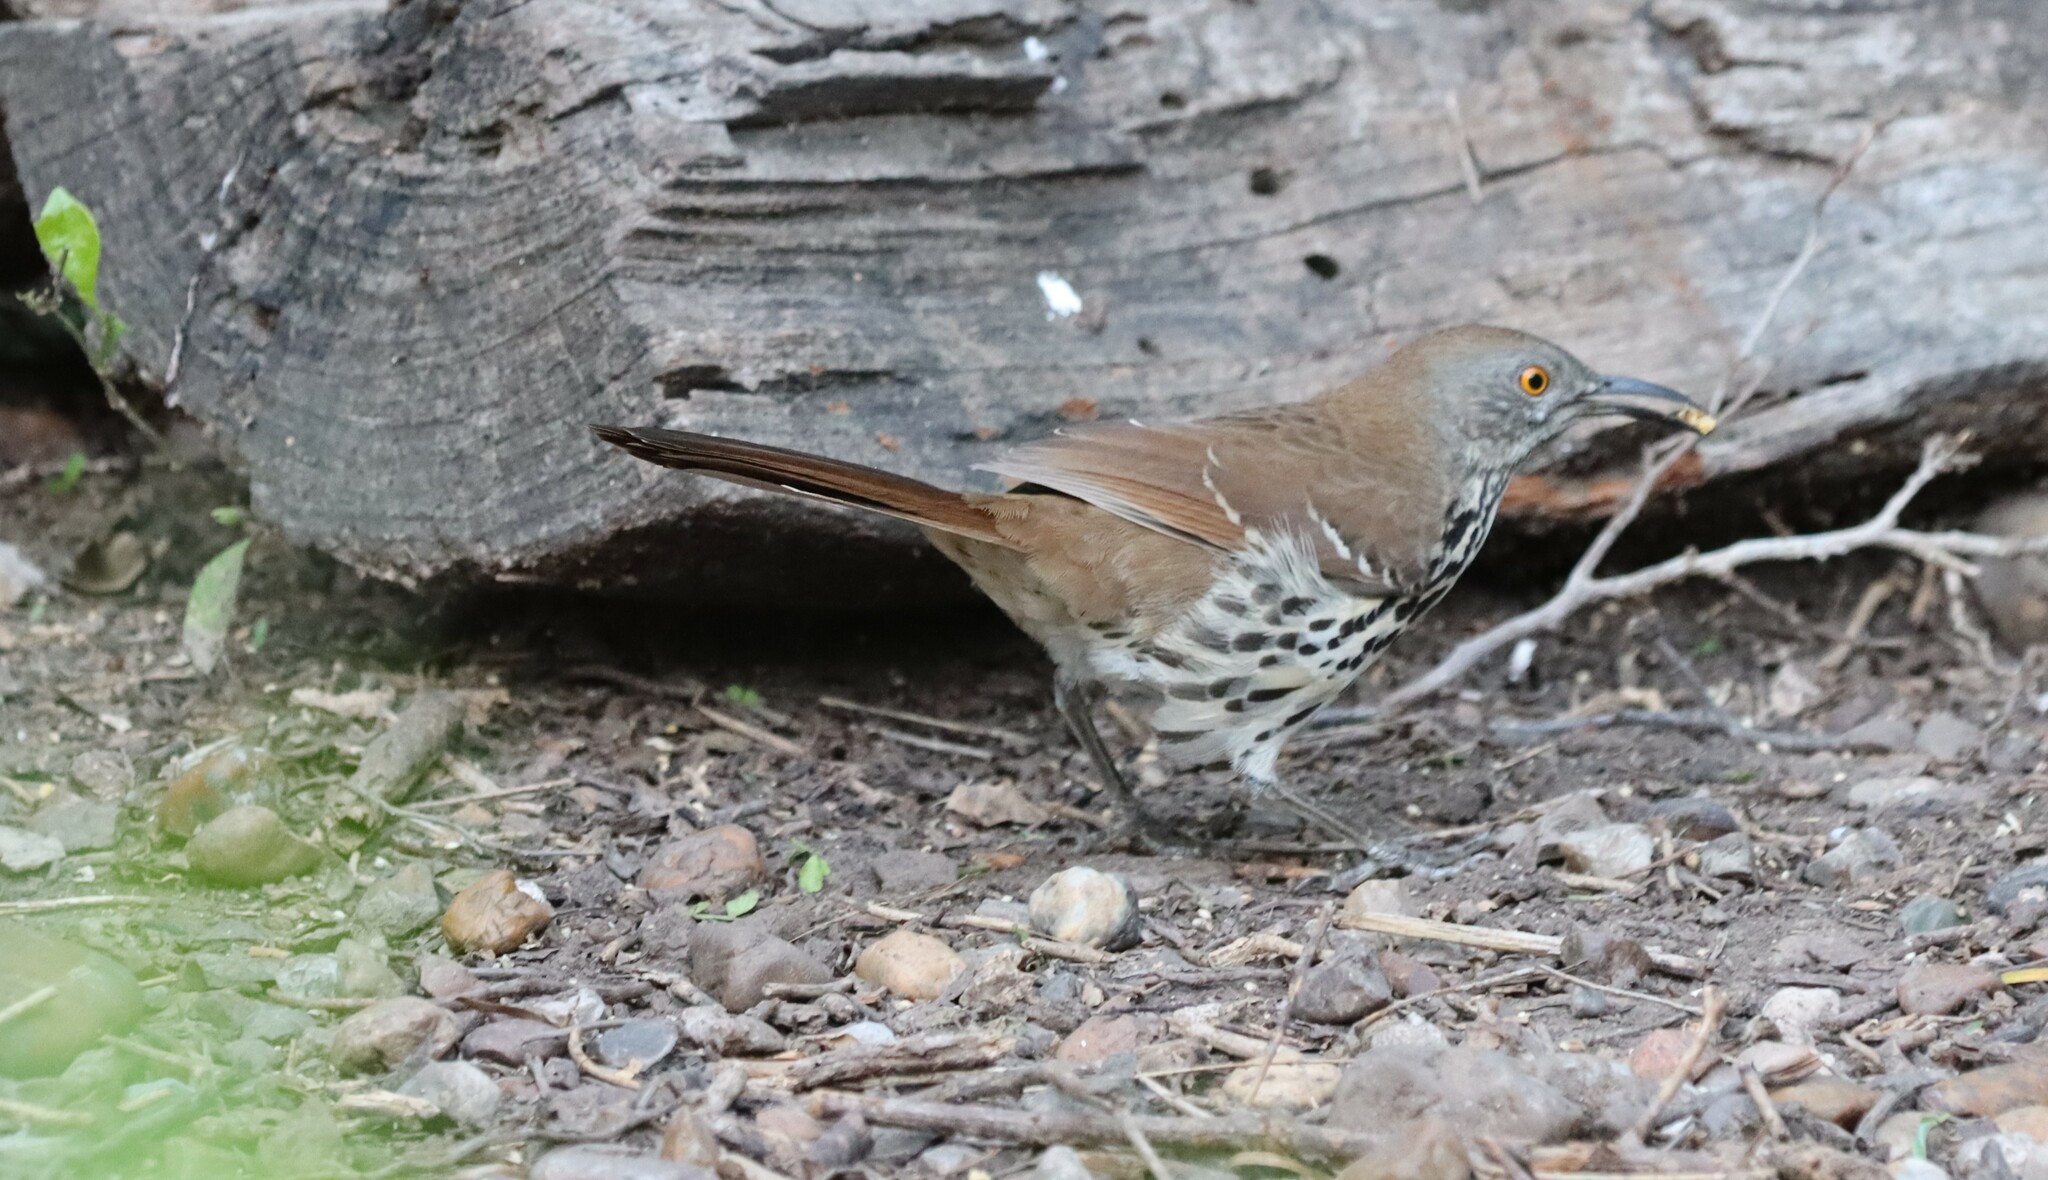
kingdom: Animalia
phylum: Chordata
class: Aves
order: Passeriformes
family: Mimidae
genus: Toxostoma
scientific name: Toxostoma longirostre
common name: Long-billed thrasher
